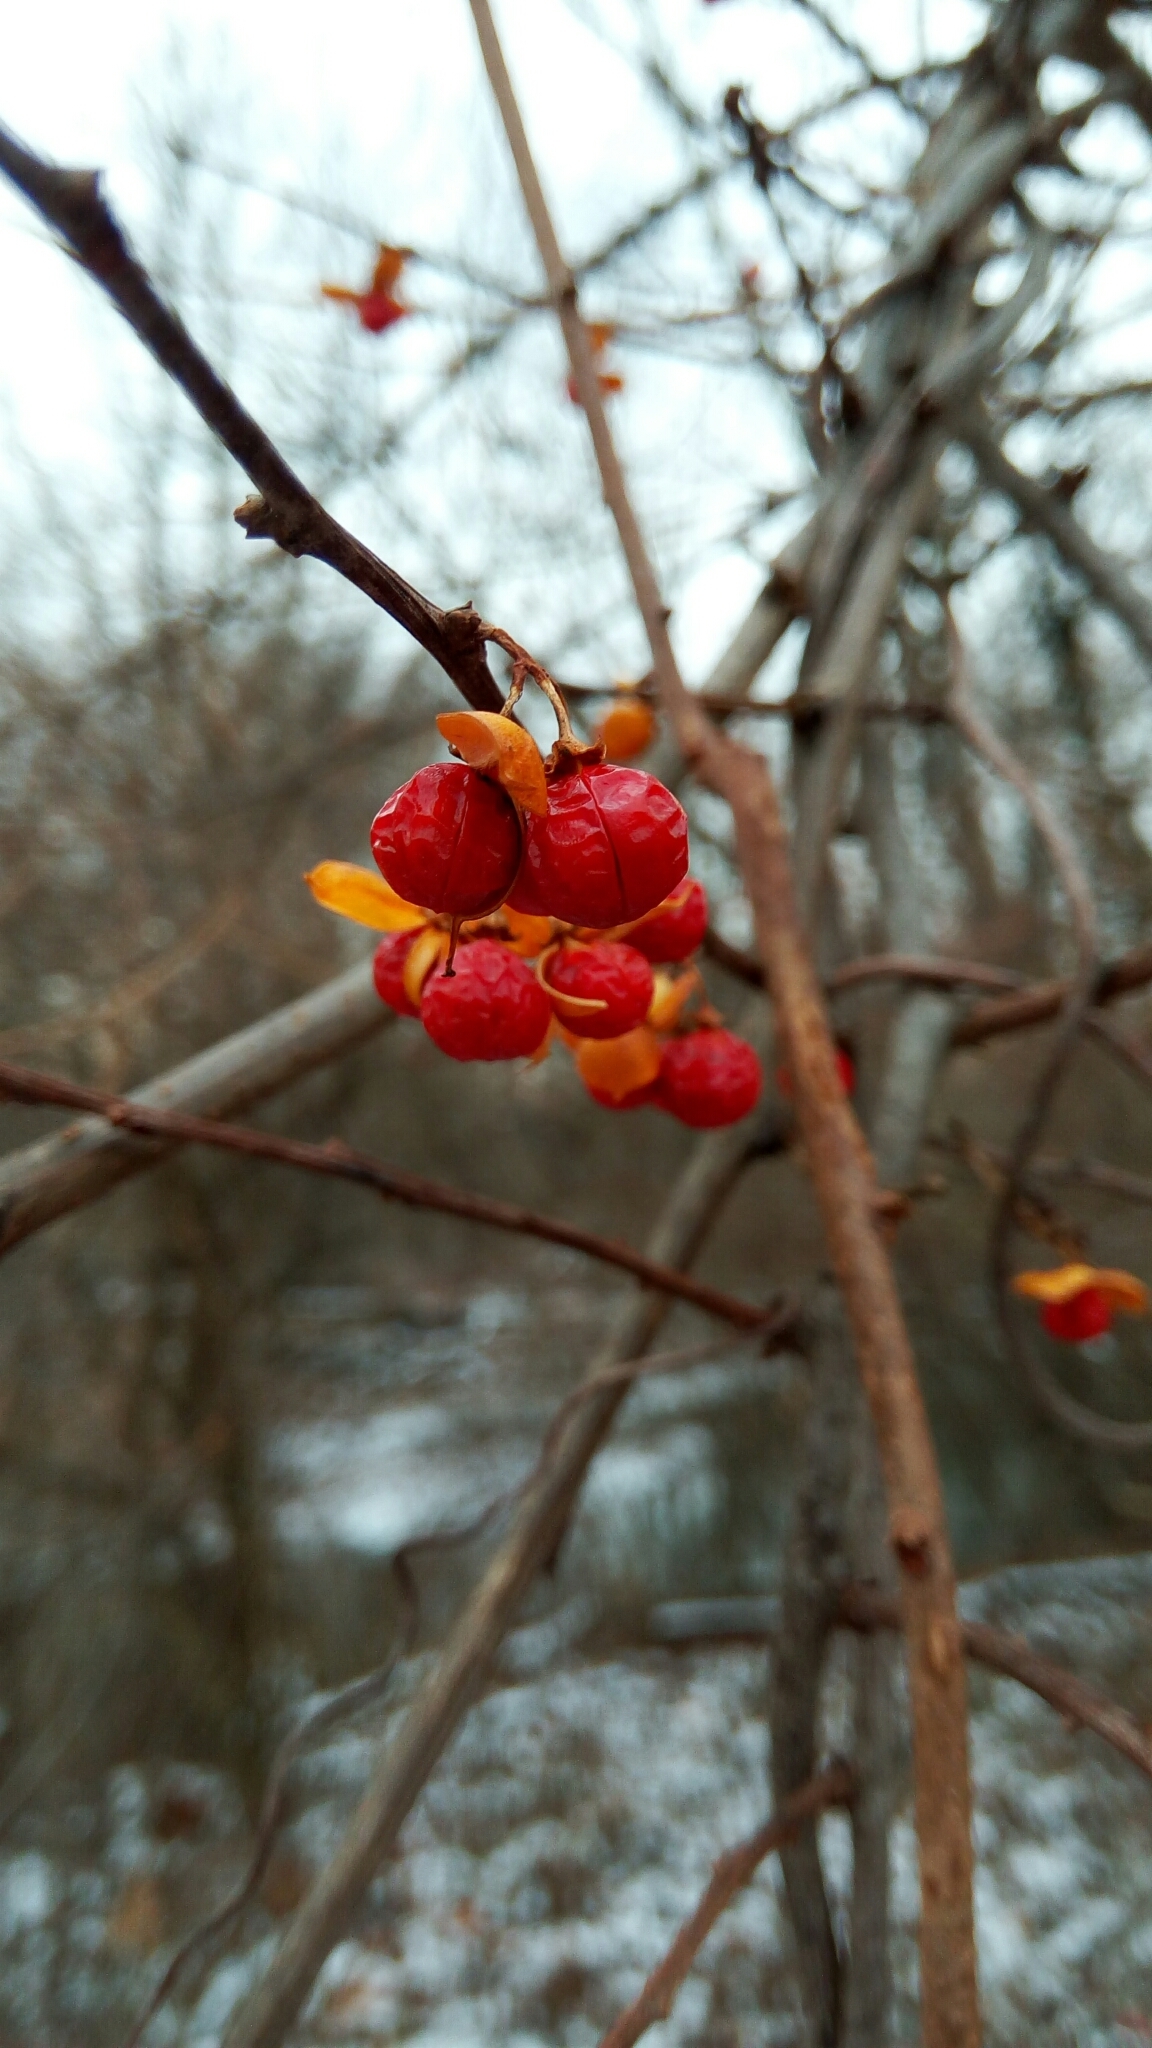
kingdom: Plantae
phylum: Tracheophyta
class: Magnoliopsida
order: Celastrales
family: Celastraceae
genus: Celastrus
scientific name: Celastrus orbiculatus
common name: Oriental bittersweet
